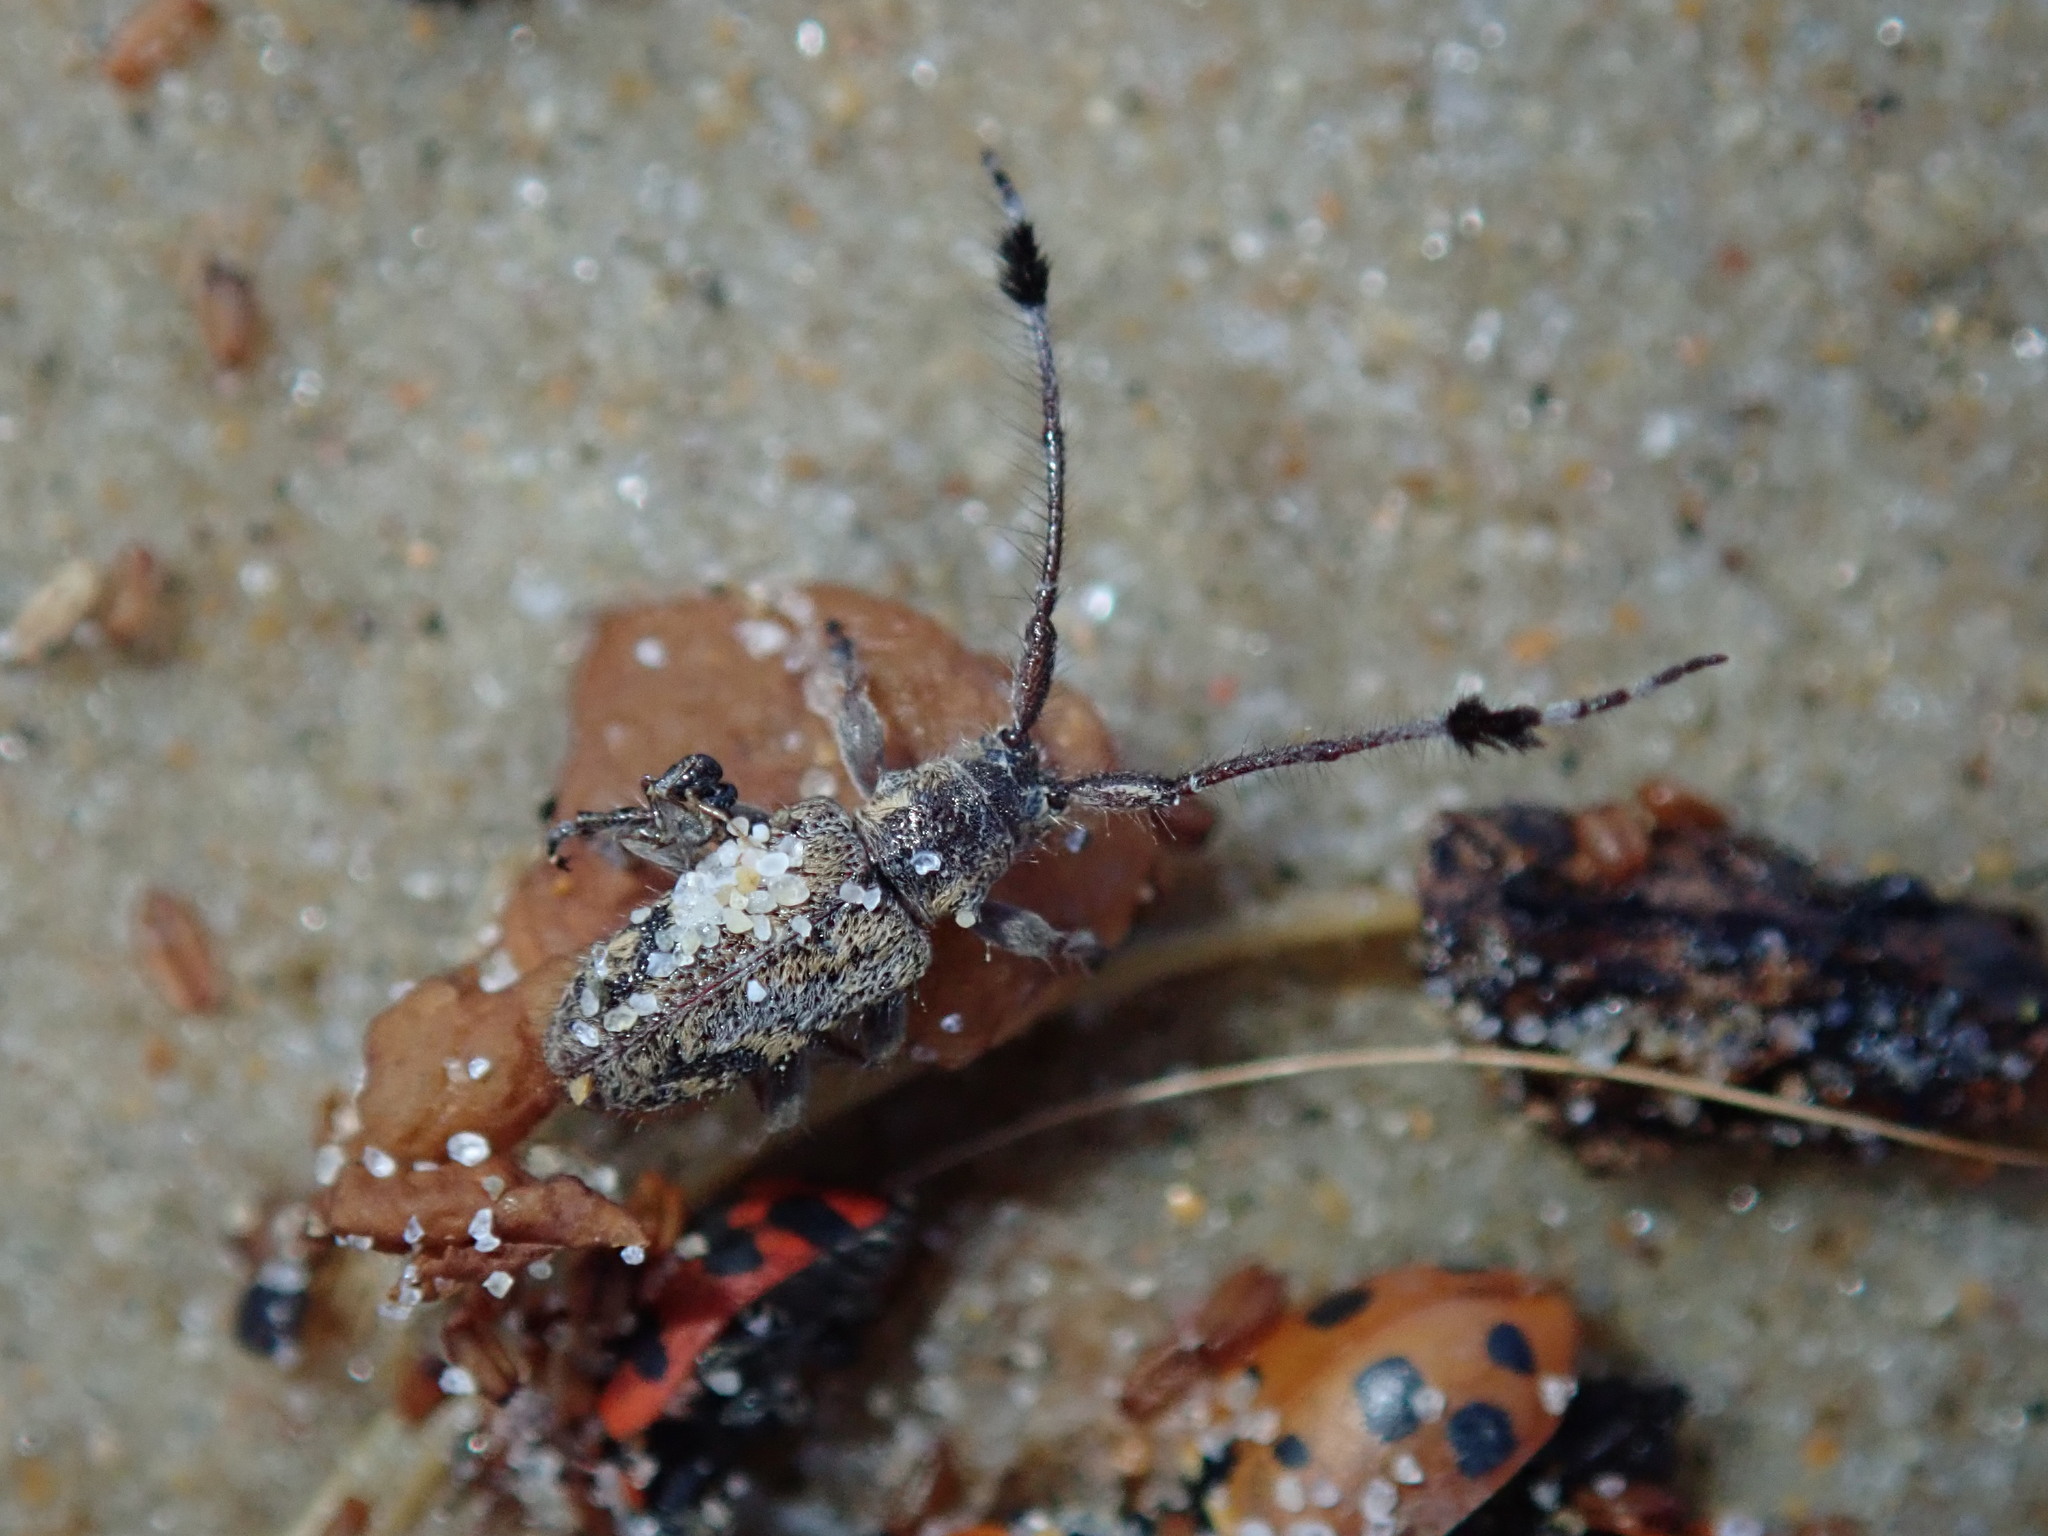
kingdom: Animalia
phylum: Arthropoda
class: Insecta
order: Coleoptera
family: Cerambycidae
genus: Pentacosmia
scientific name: Pentacosmia scoparia
